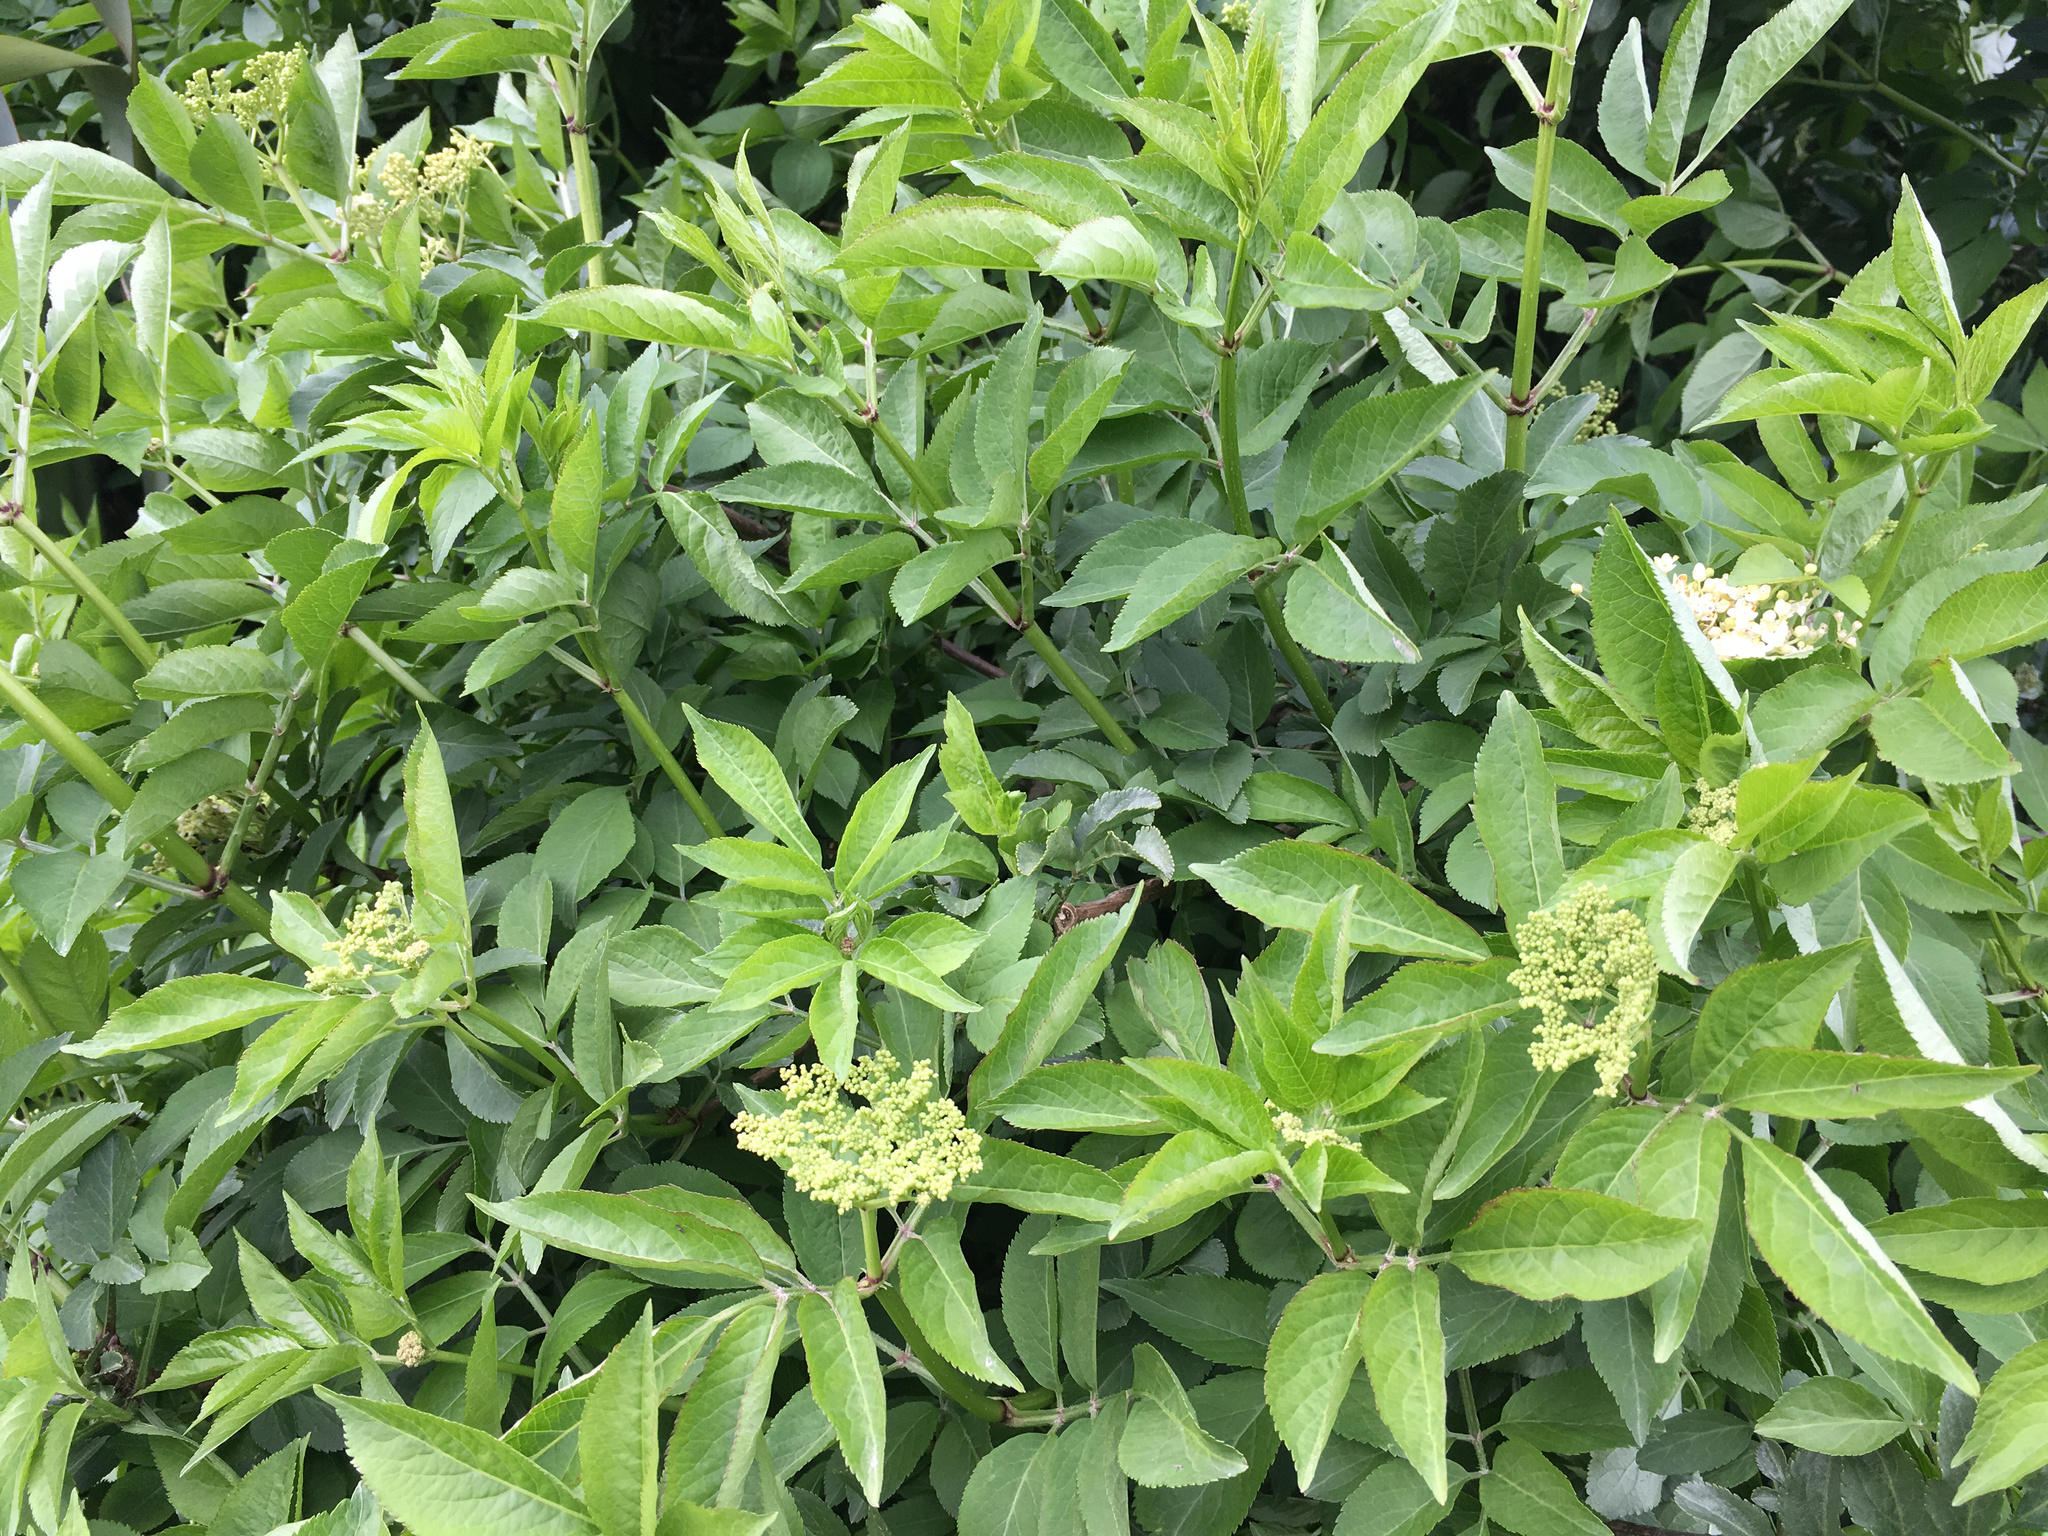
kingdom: Plantae
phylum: Tracheophyta
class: Magnoliopsida
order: Dipsacales
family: Viburnaceae
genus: Sambucus
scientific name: Sambucus nigra
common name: Elder
